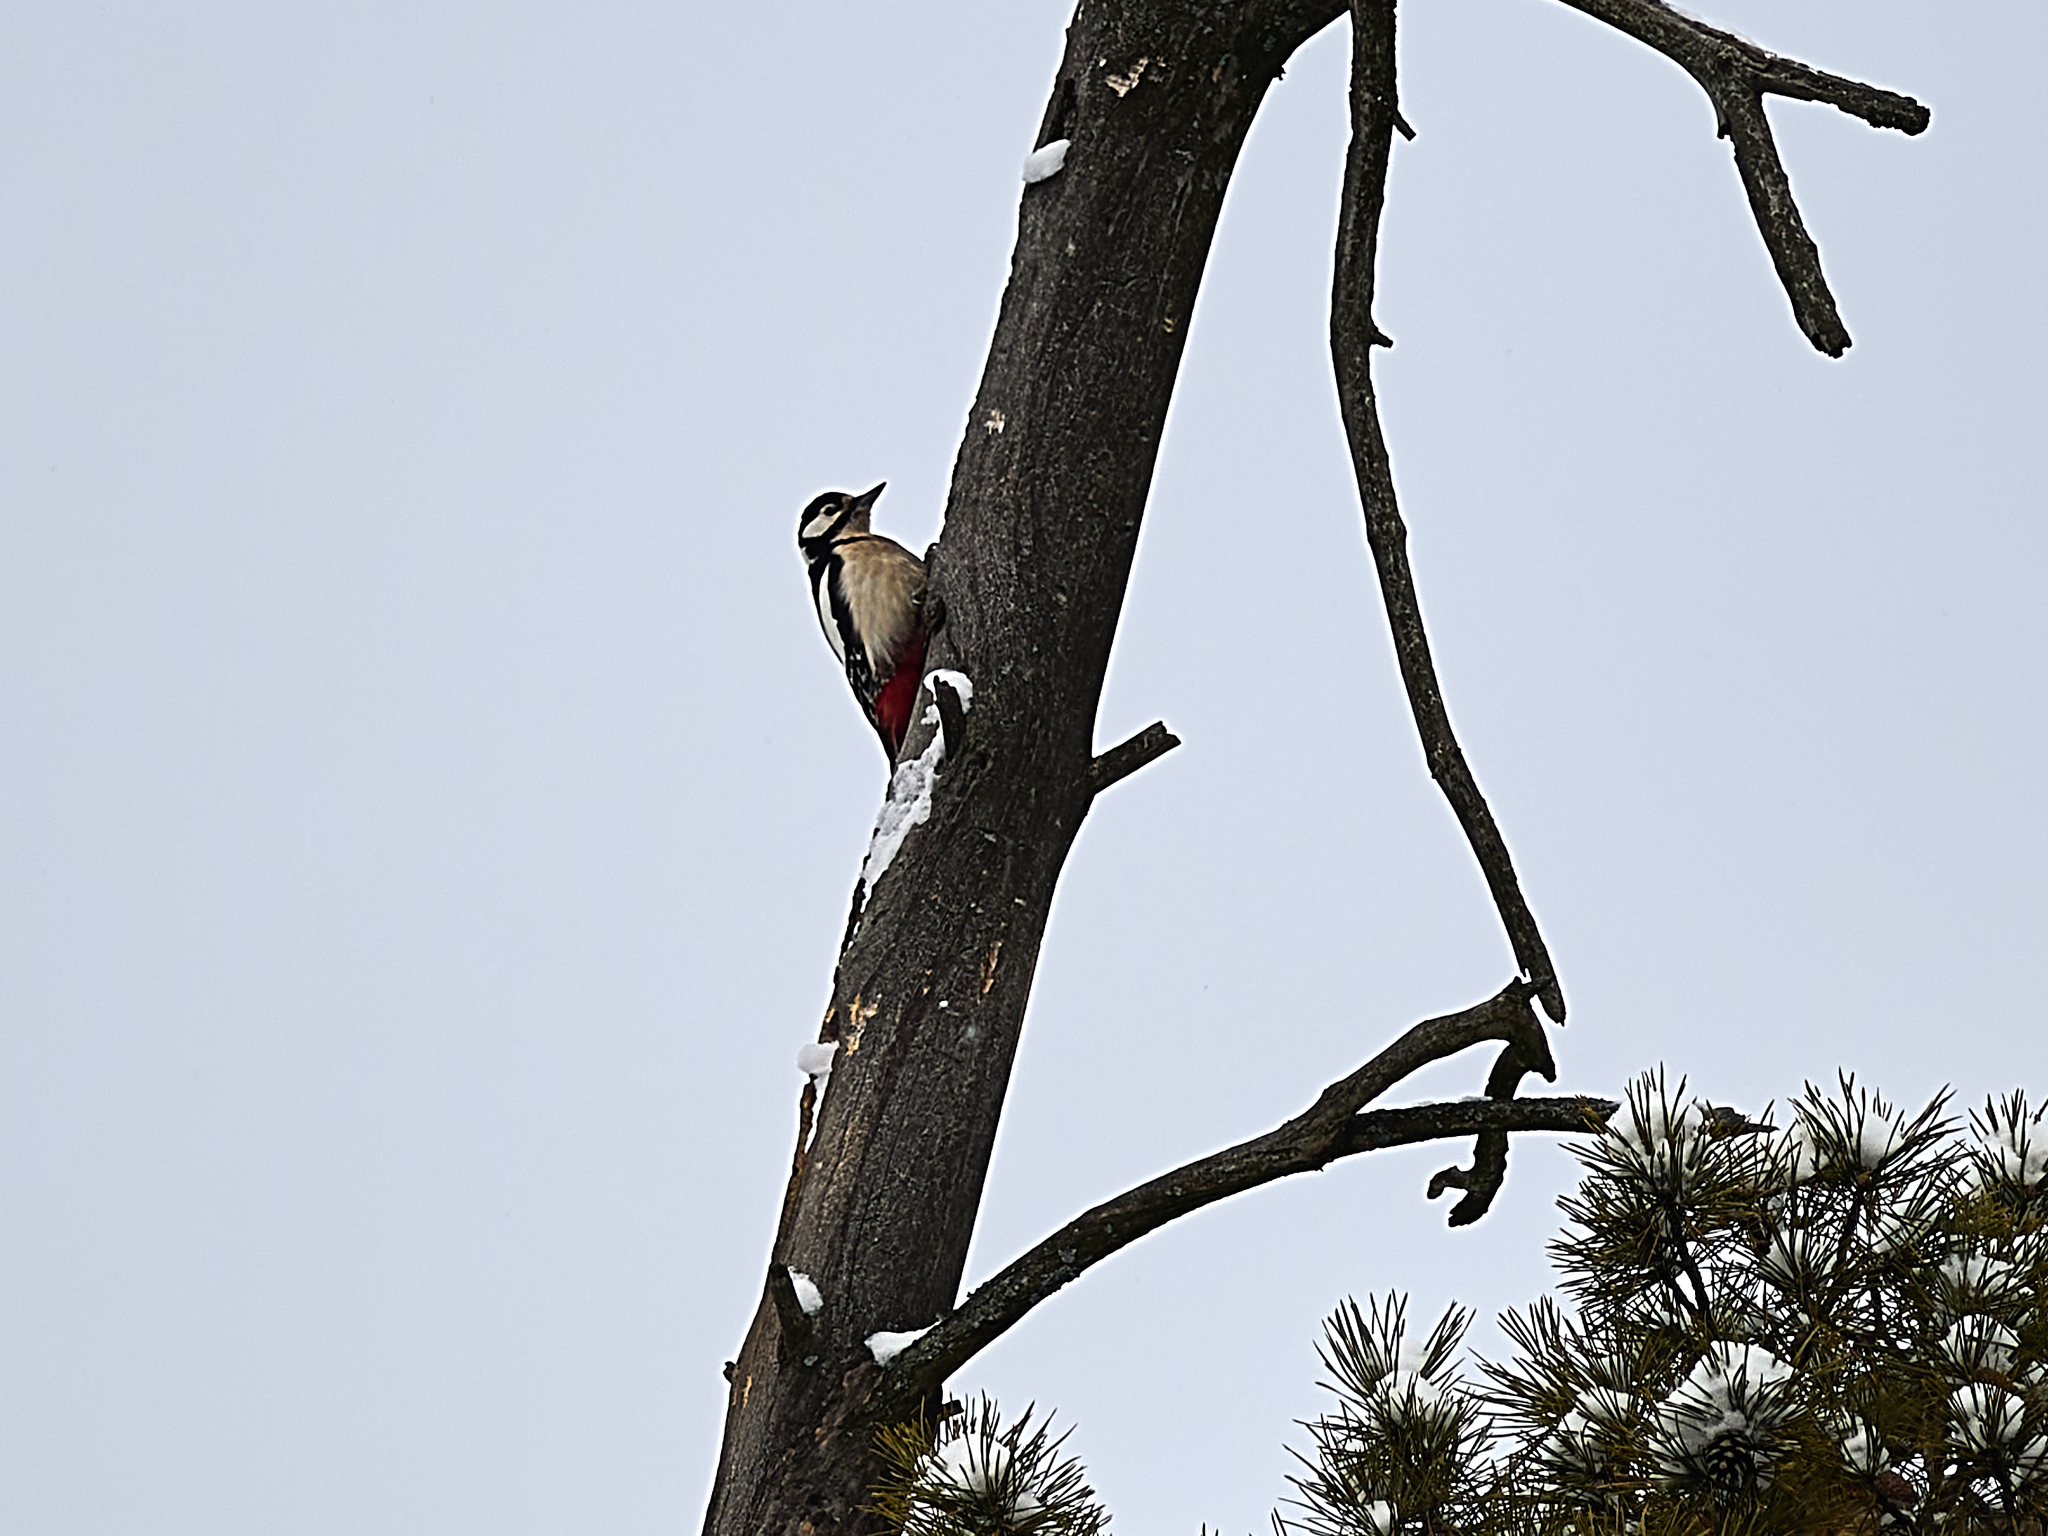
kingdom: Animalia
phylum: Chordata
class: Aves
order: Piciformes
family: Picidae
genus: Dendrocopos
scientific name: Dendrocopos major
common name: Great spotted woodpecker
